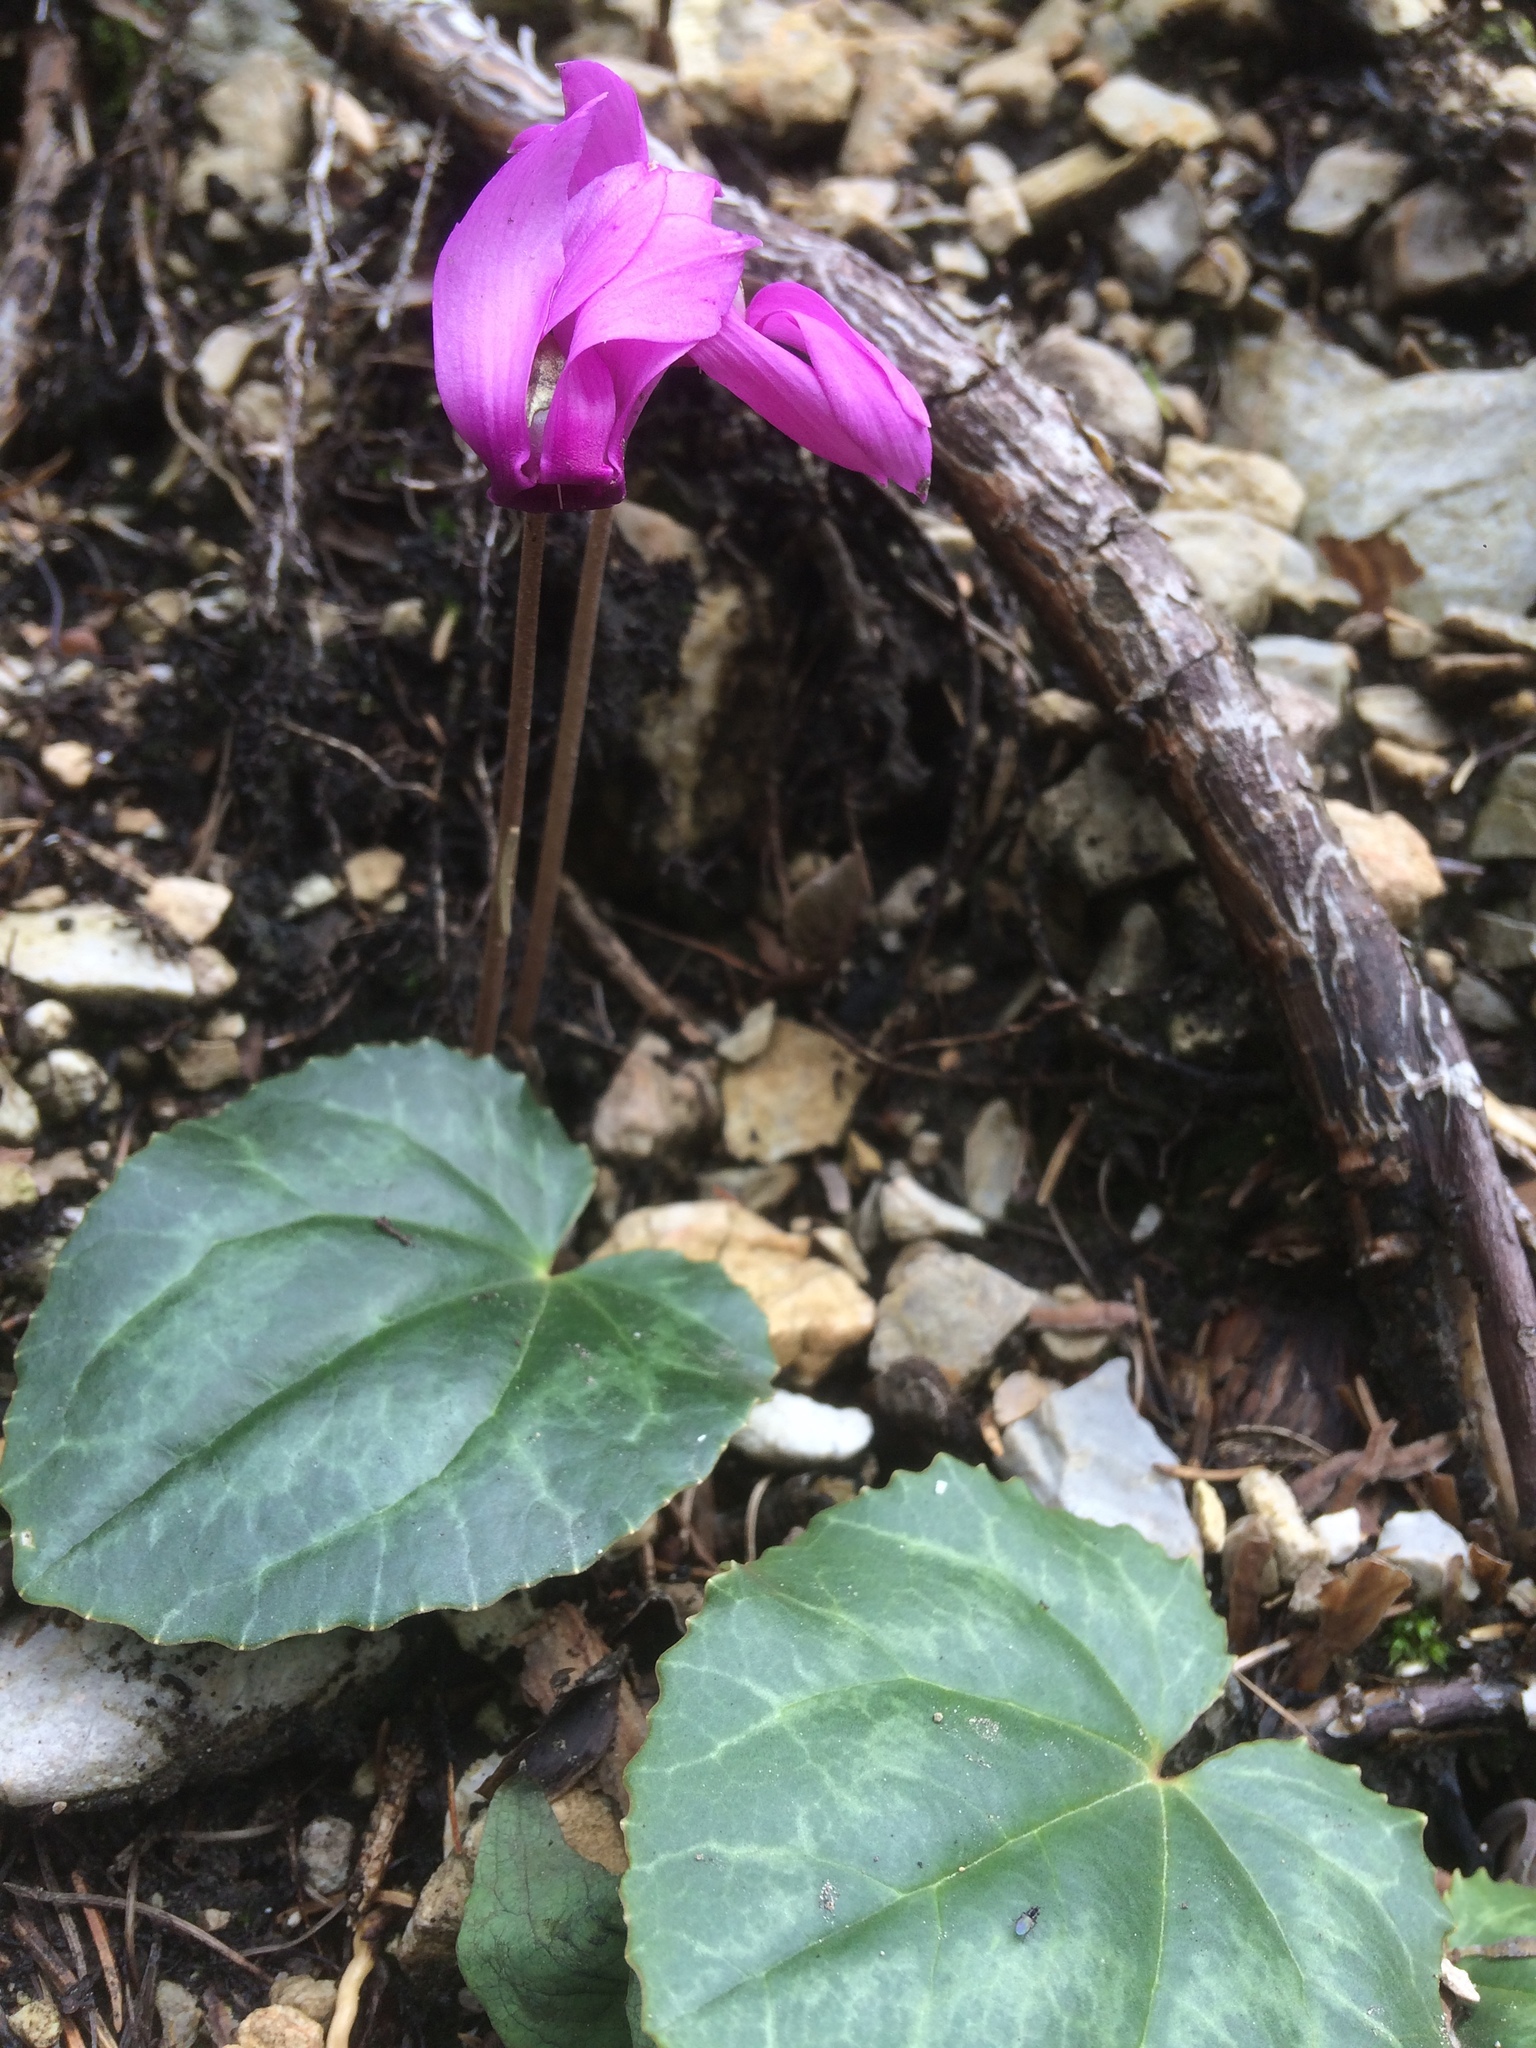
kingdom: Plantae
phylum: Tracheophyta
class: Magnoliopsida
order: Ericales
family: Primulaceae
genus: Cyclamen
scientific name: Cyclamen purpurascens
